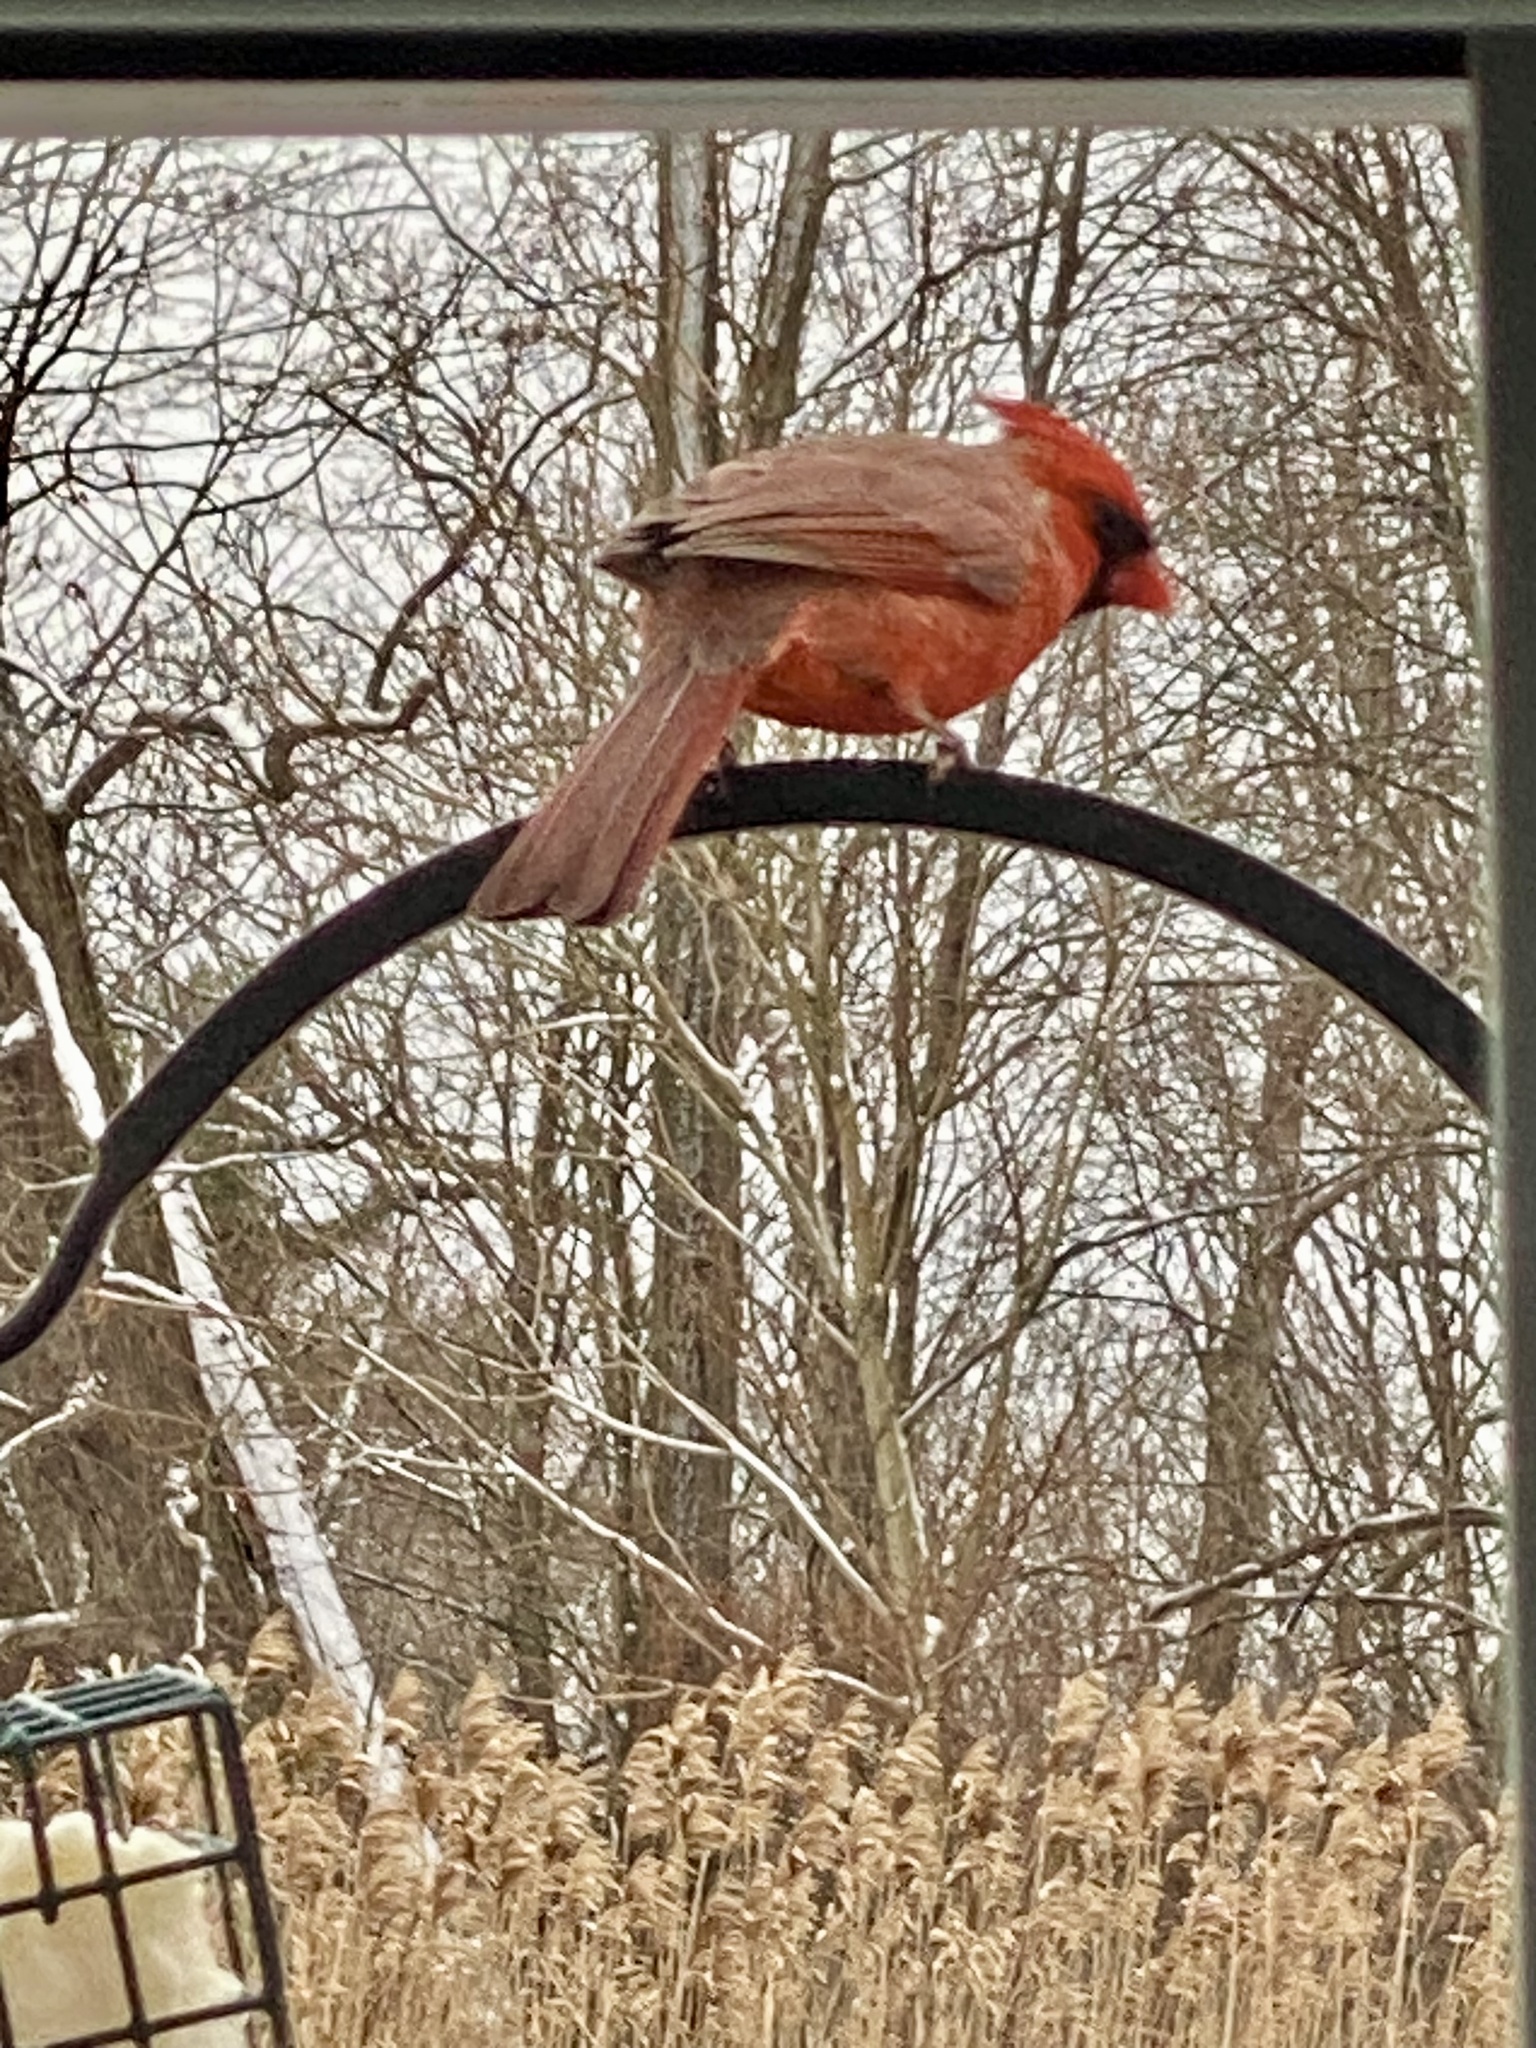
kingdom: Animalia
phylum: Chordata
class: Aves
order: Passeriformes
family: Cardinalidae
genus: Cardinalis
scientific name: Cardinalis cardinalis
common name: Northern cardinal
